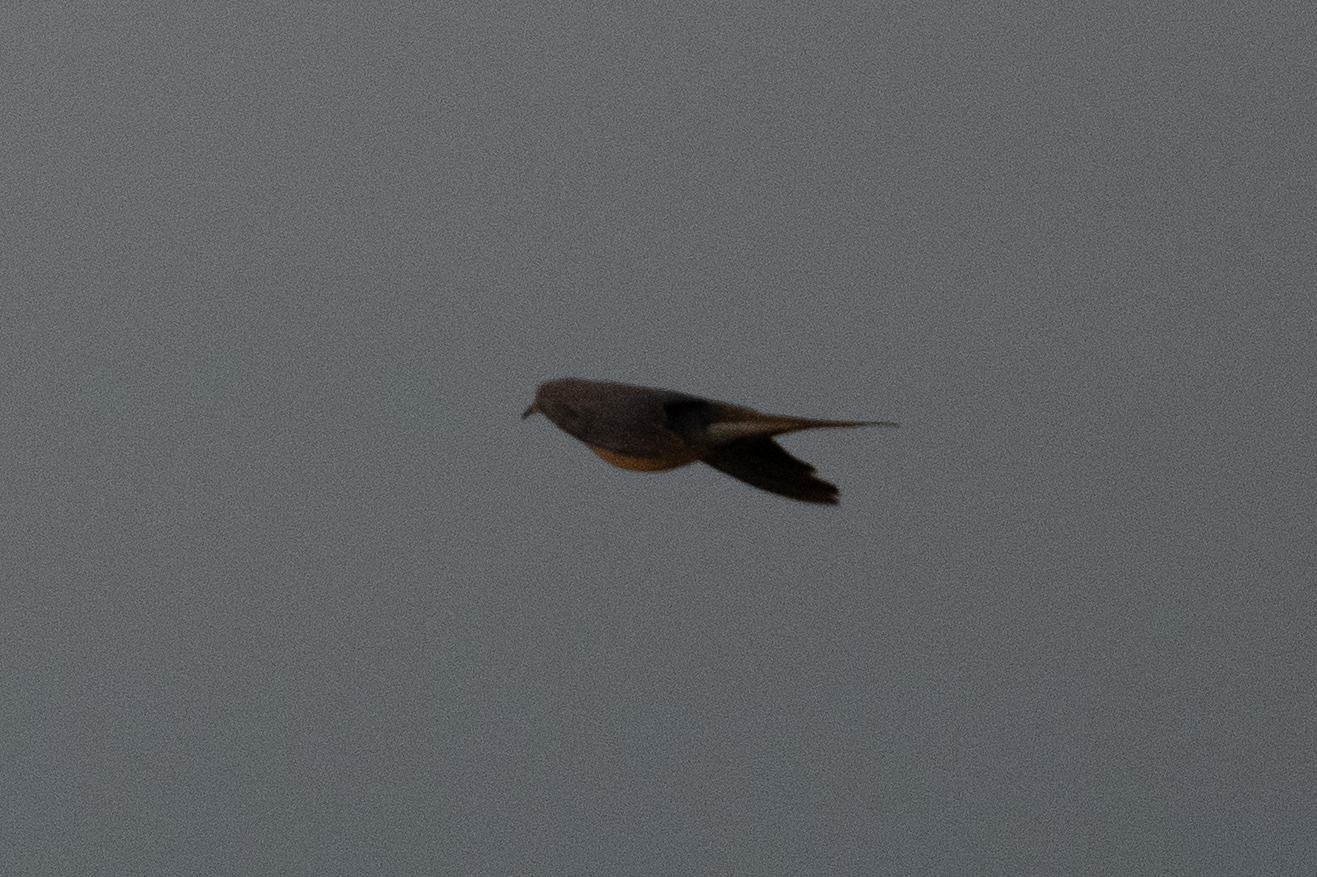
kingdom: Animalia
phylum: Chordata
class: Aves
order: Columbiformes
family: Columbidae
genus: Zenaida
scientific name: Zenaida macroura
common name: Mourning dove
